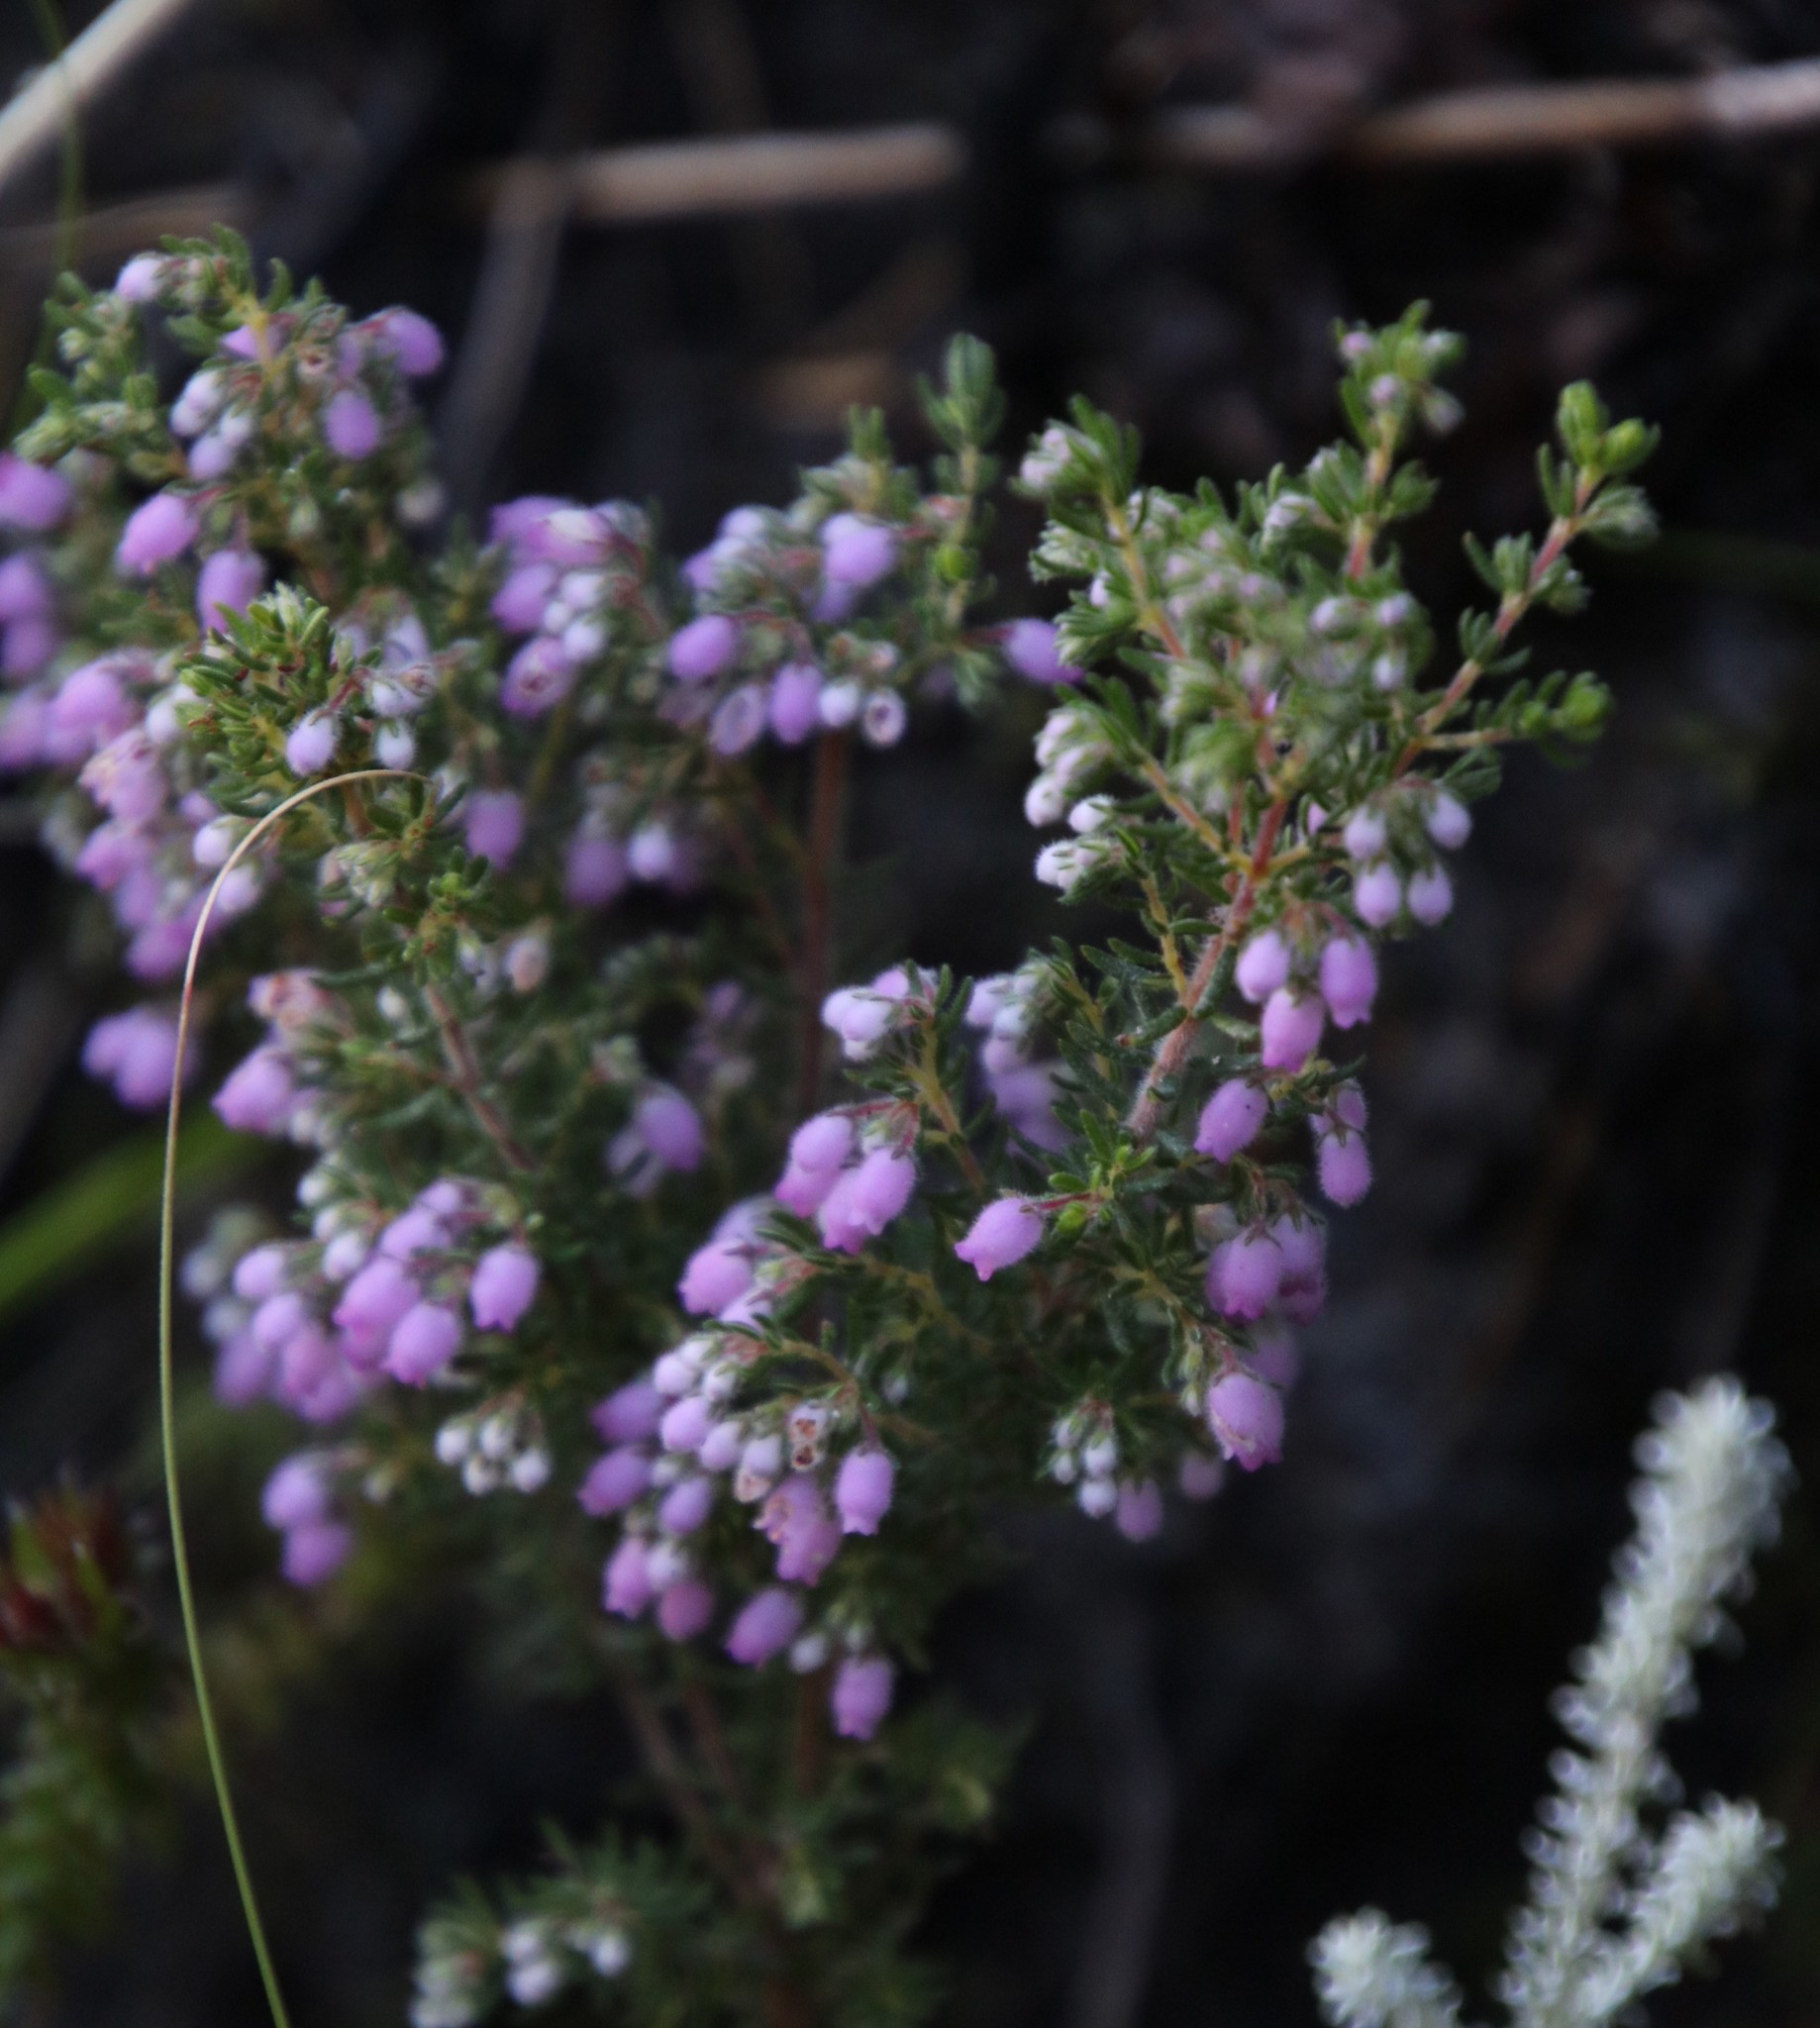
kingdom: Plantae
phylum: Tracheophyta
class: Magnoliopsida
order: Ericales
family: Ericaceae
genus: Erica
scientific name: Erica hirtiflora
